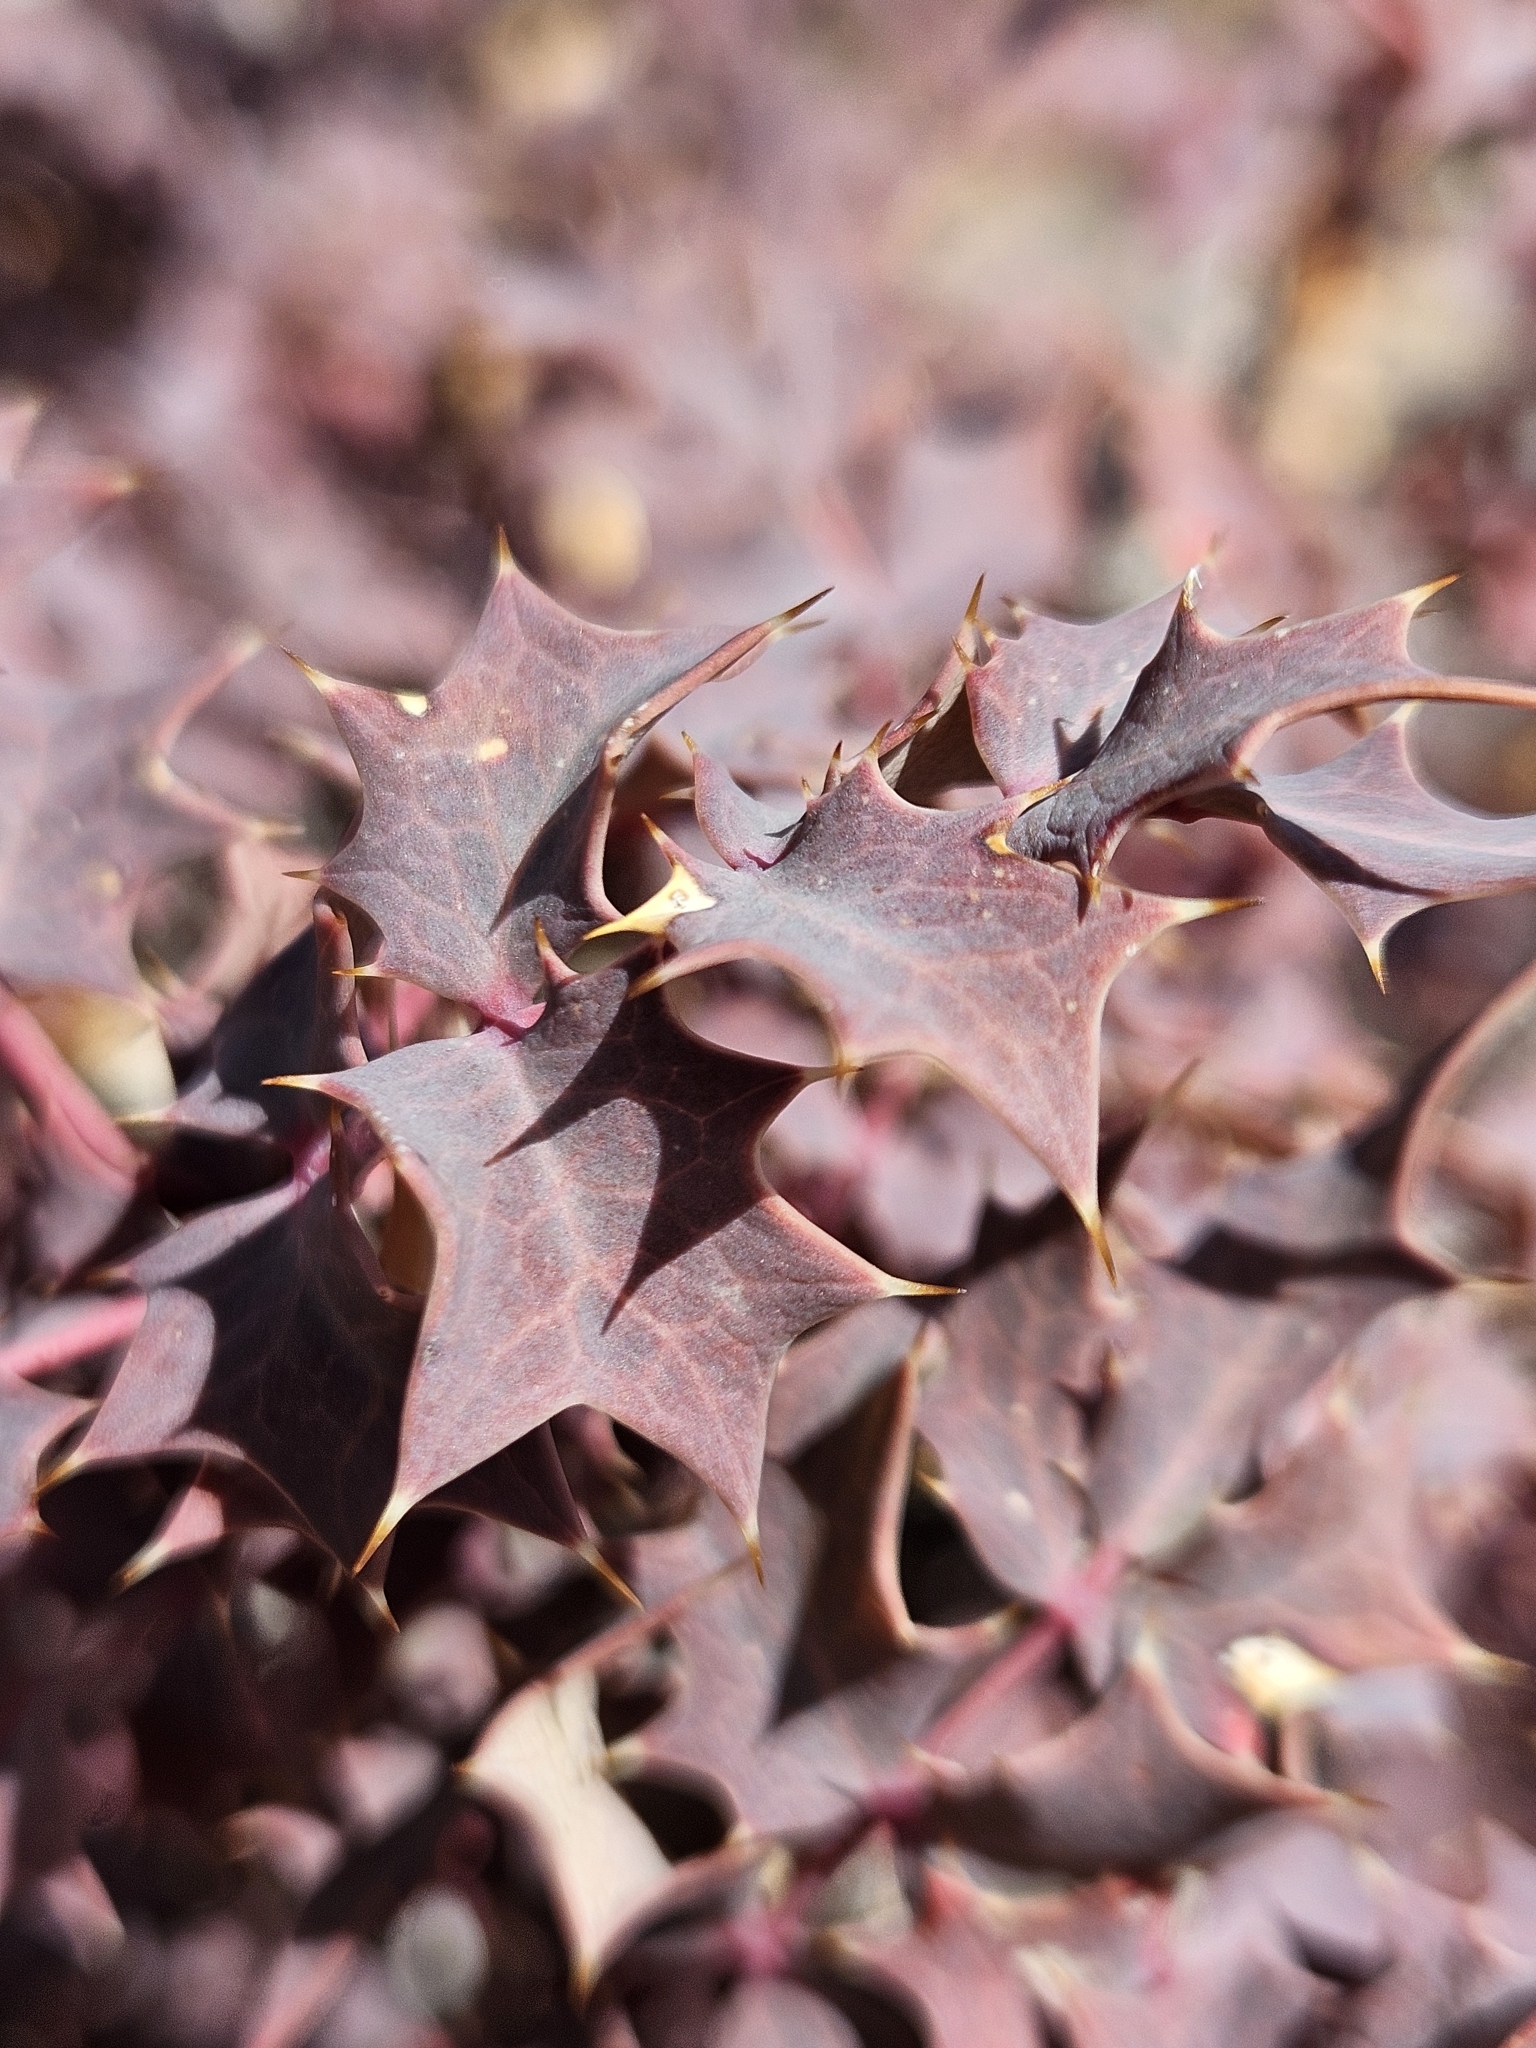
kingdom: Plantae
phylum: Tracheophyta
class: Magnoliopsida
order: Ranunculales
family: Berberidaceae
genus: Alloberberis
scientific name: Alloberberis fremontii
